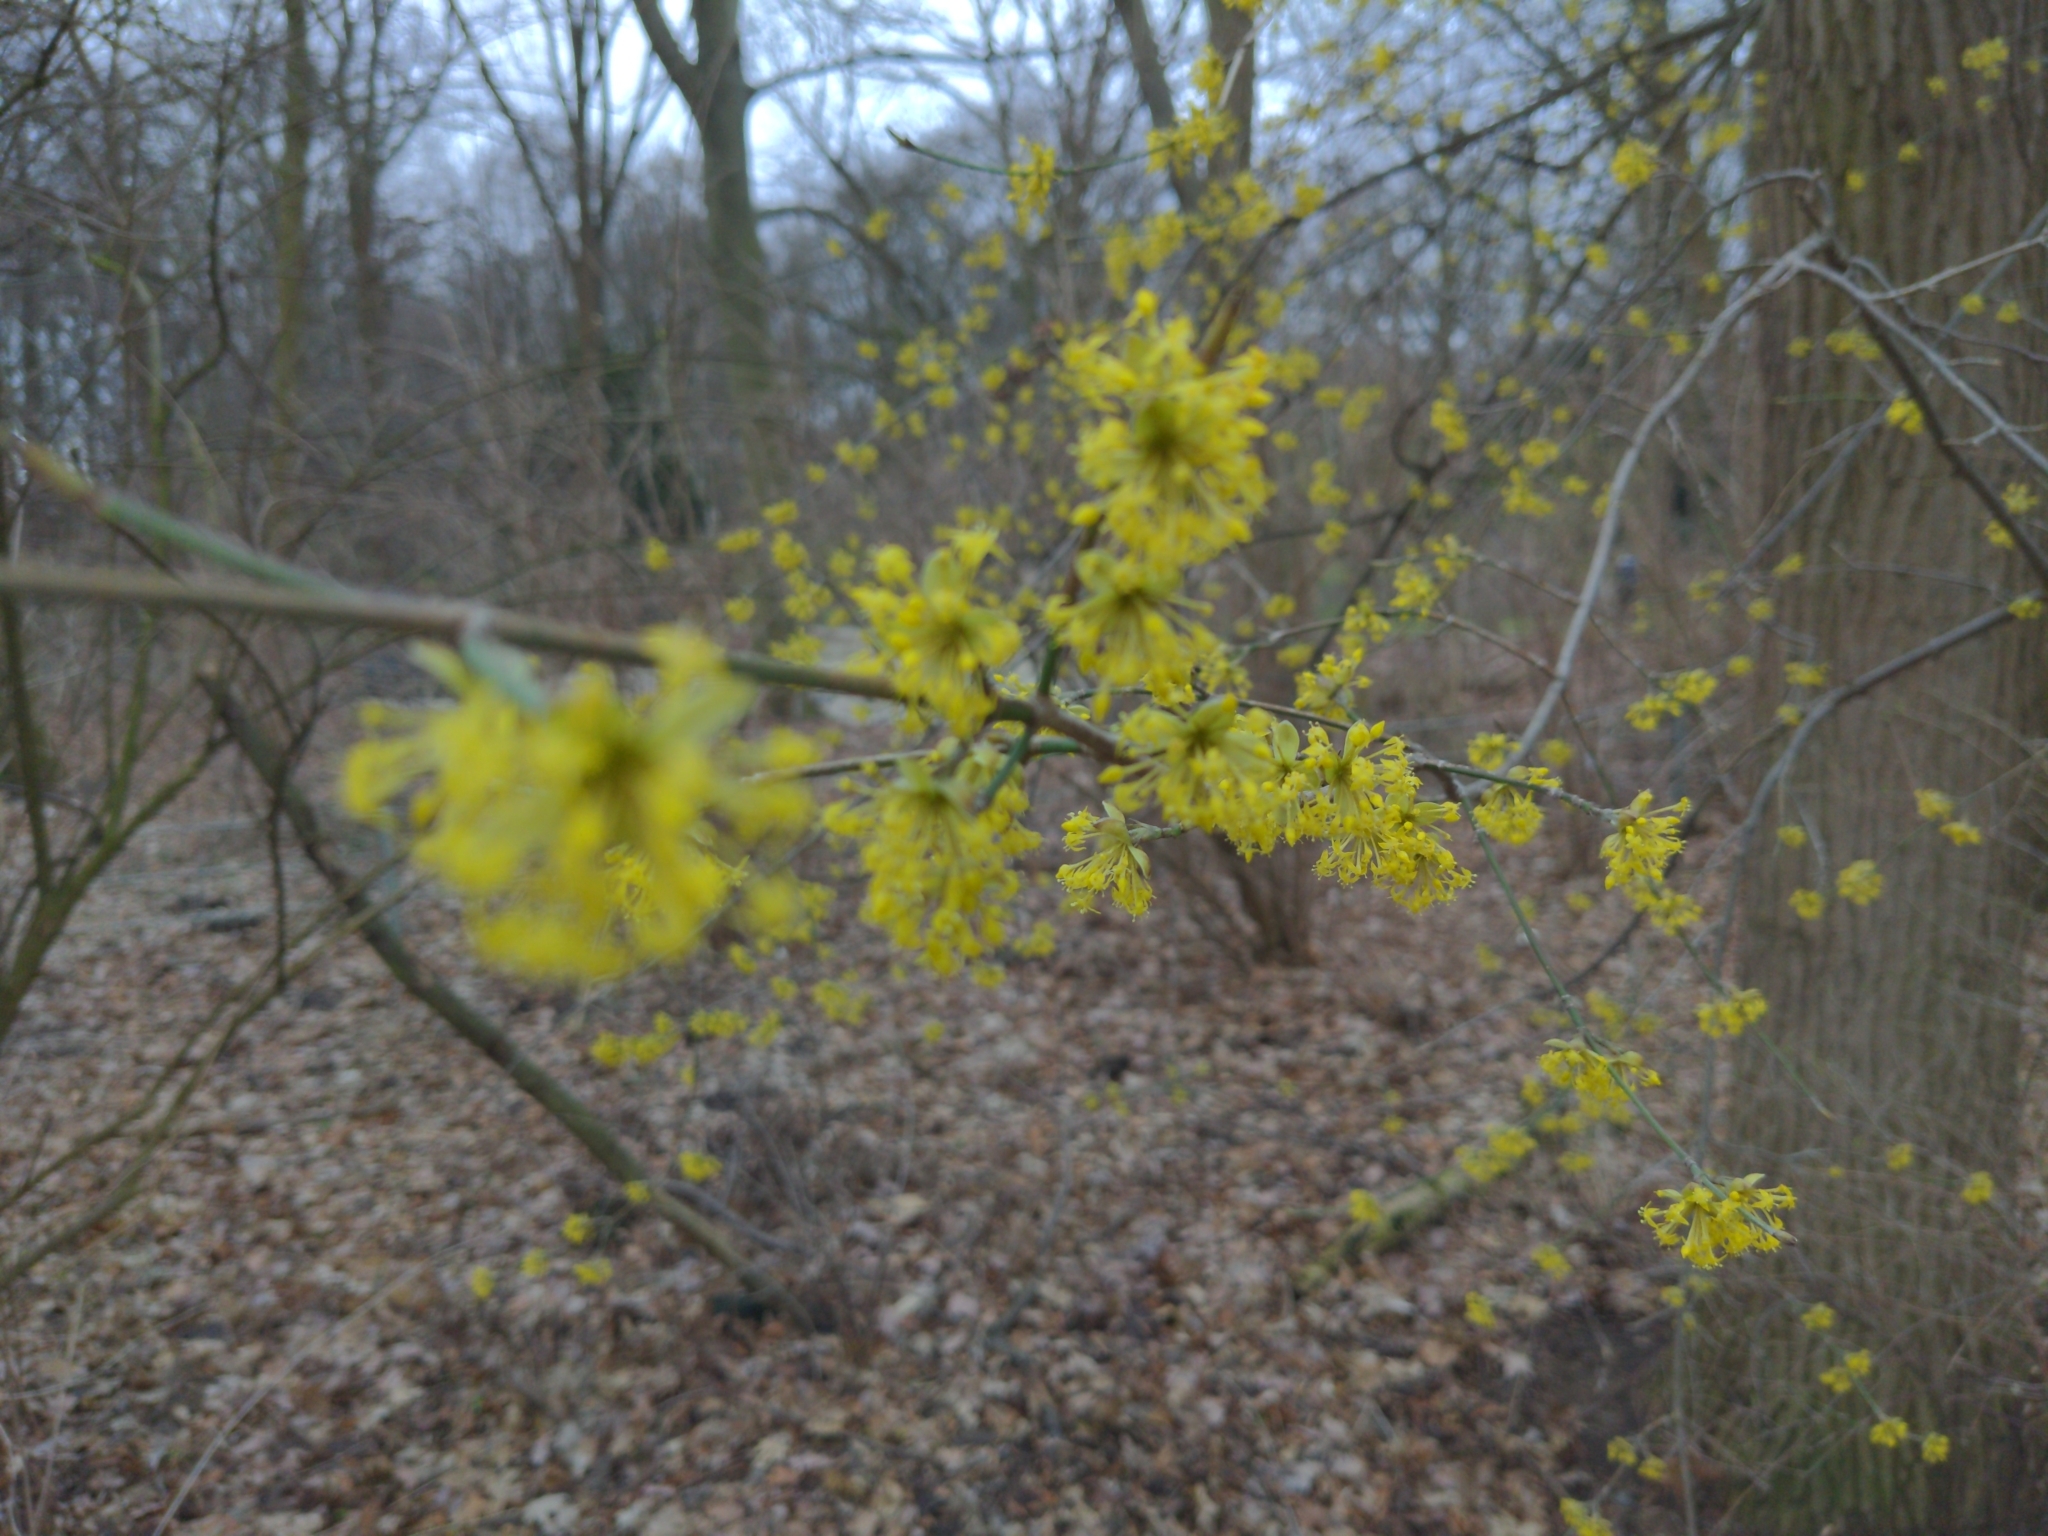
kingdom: Plantae
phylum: Tracheophyta
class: Magnoliopsida
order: Cornales
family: Cornaceae
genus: Cornus
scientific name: Cornus mas
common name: Cornelian-cherry
